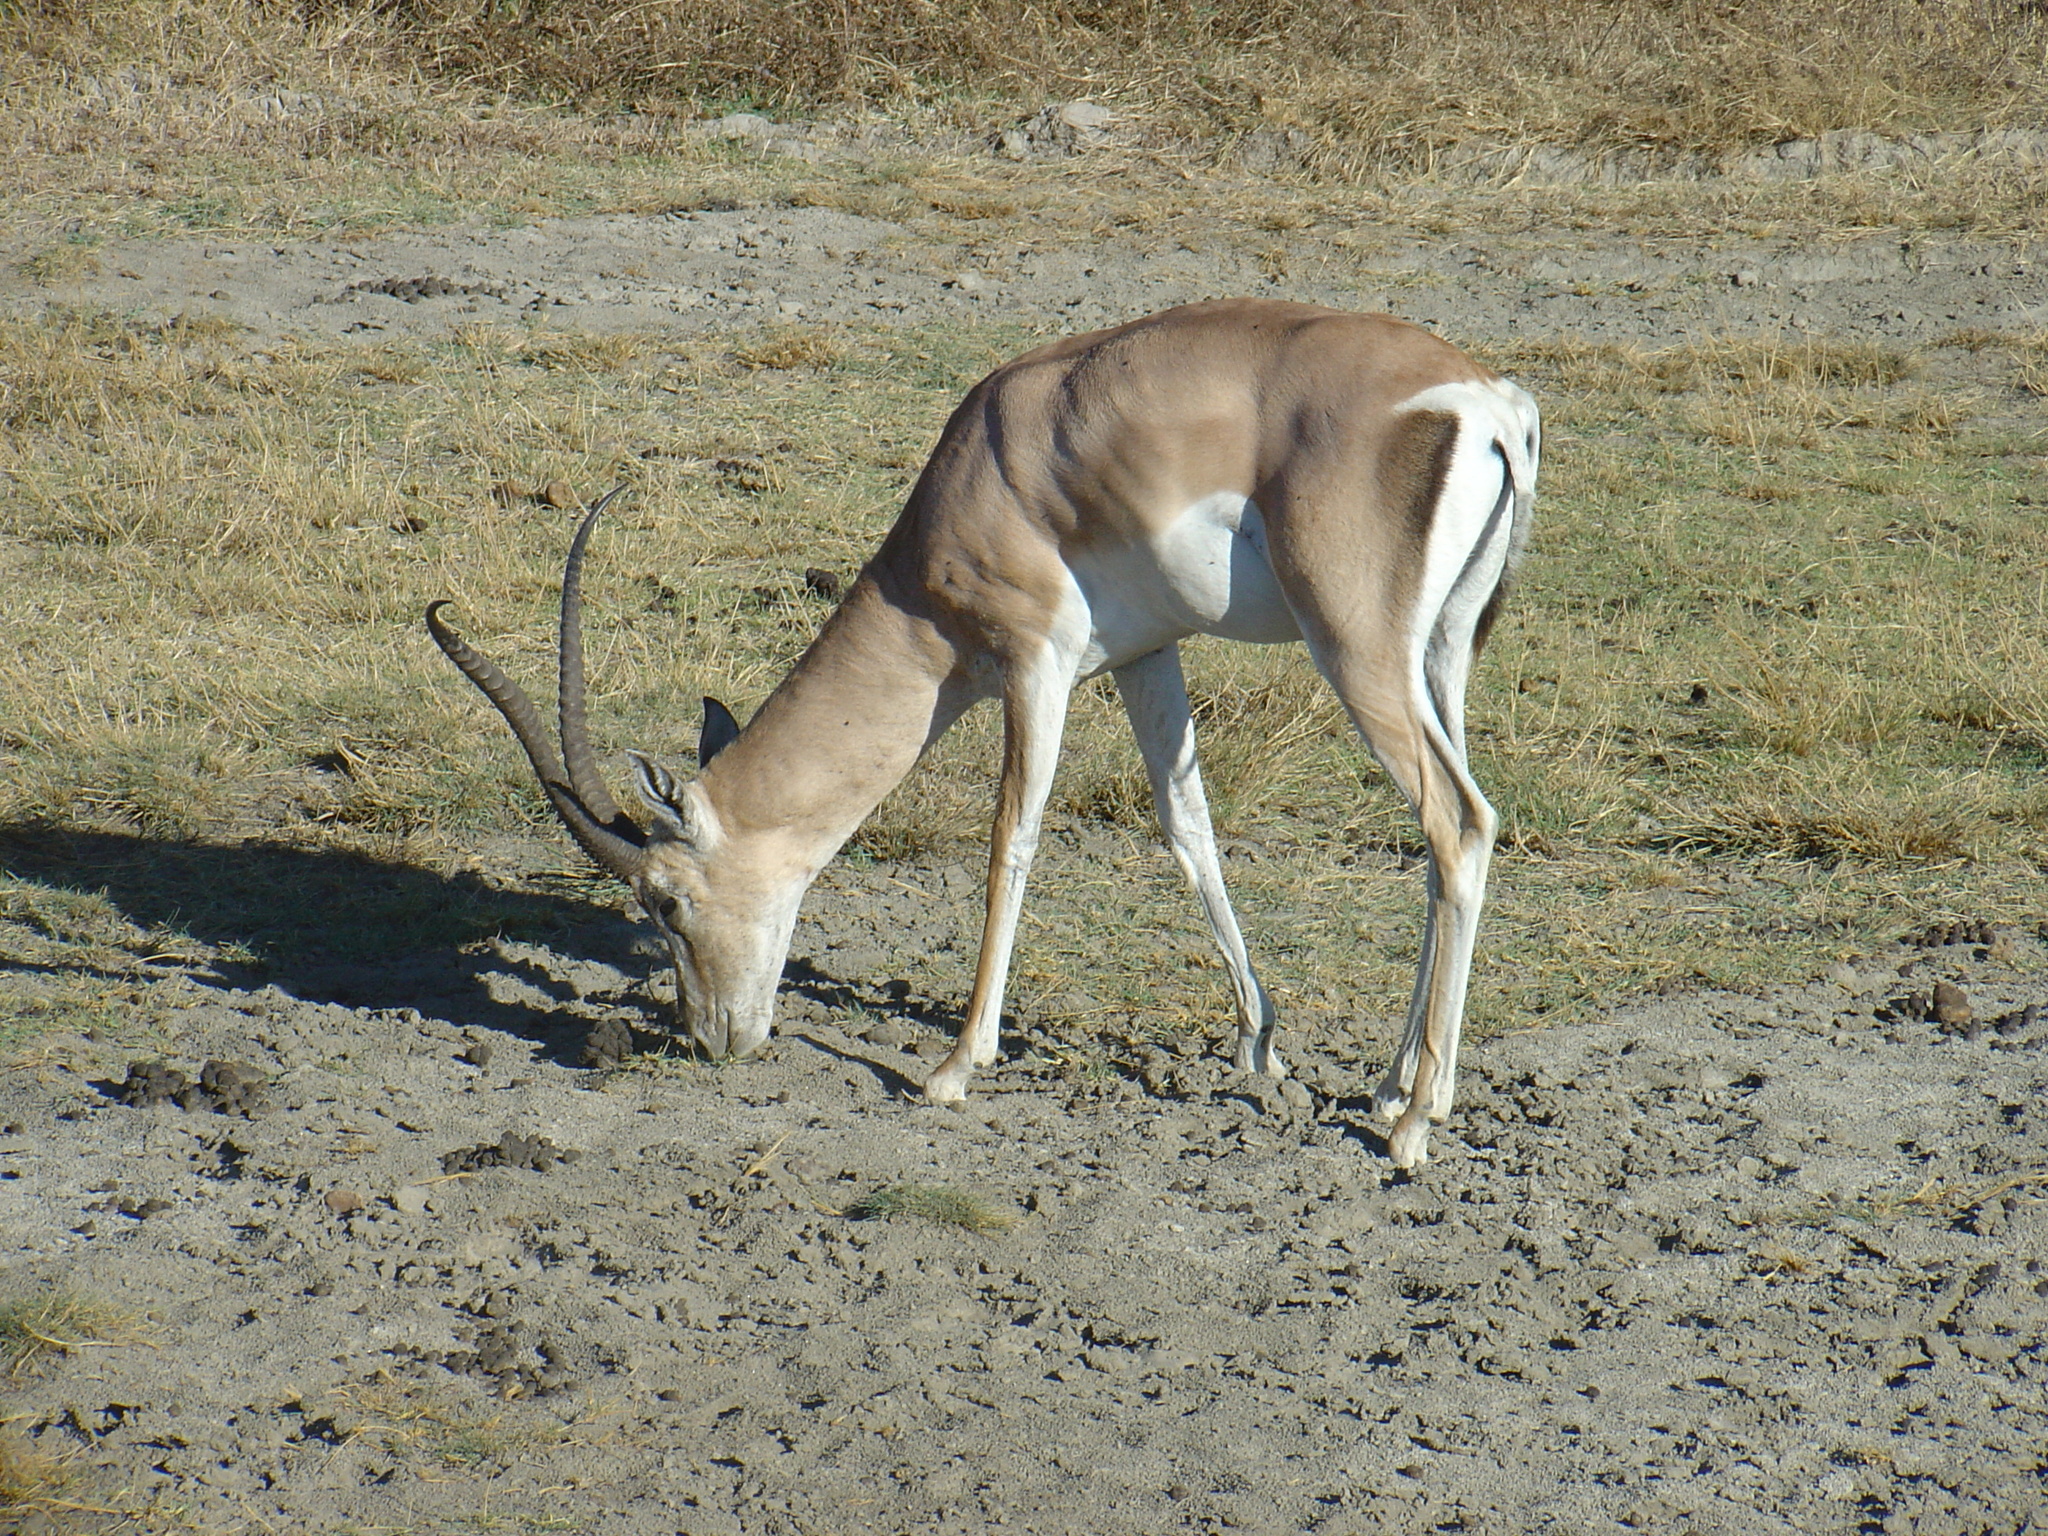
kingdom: Animalia
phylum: Chordata
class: Mammalia
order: Artiodactyla
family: Bovidae
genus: Nanger
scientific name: Nanger granti
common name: Grant's gazelle
